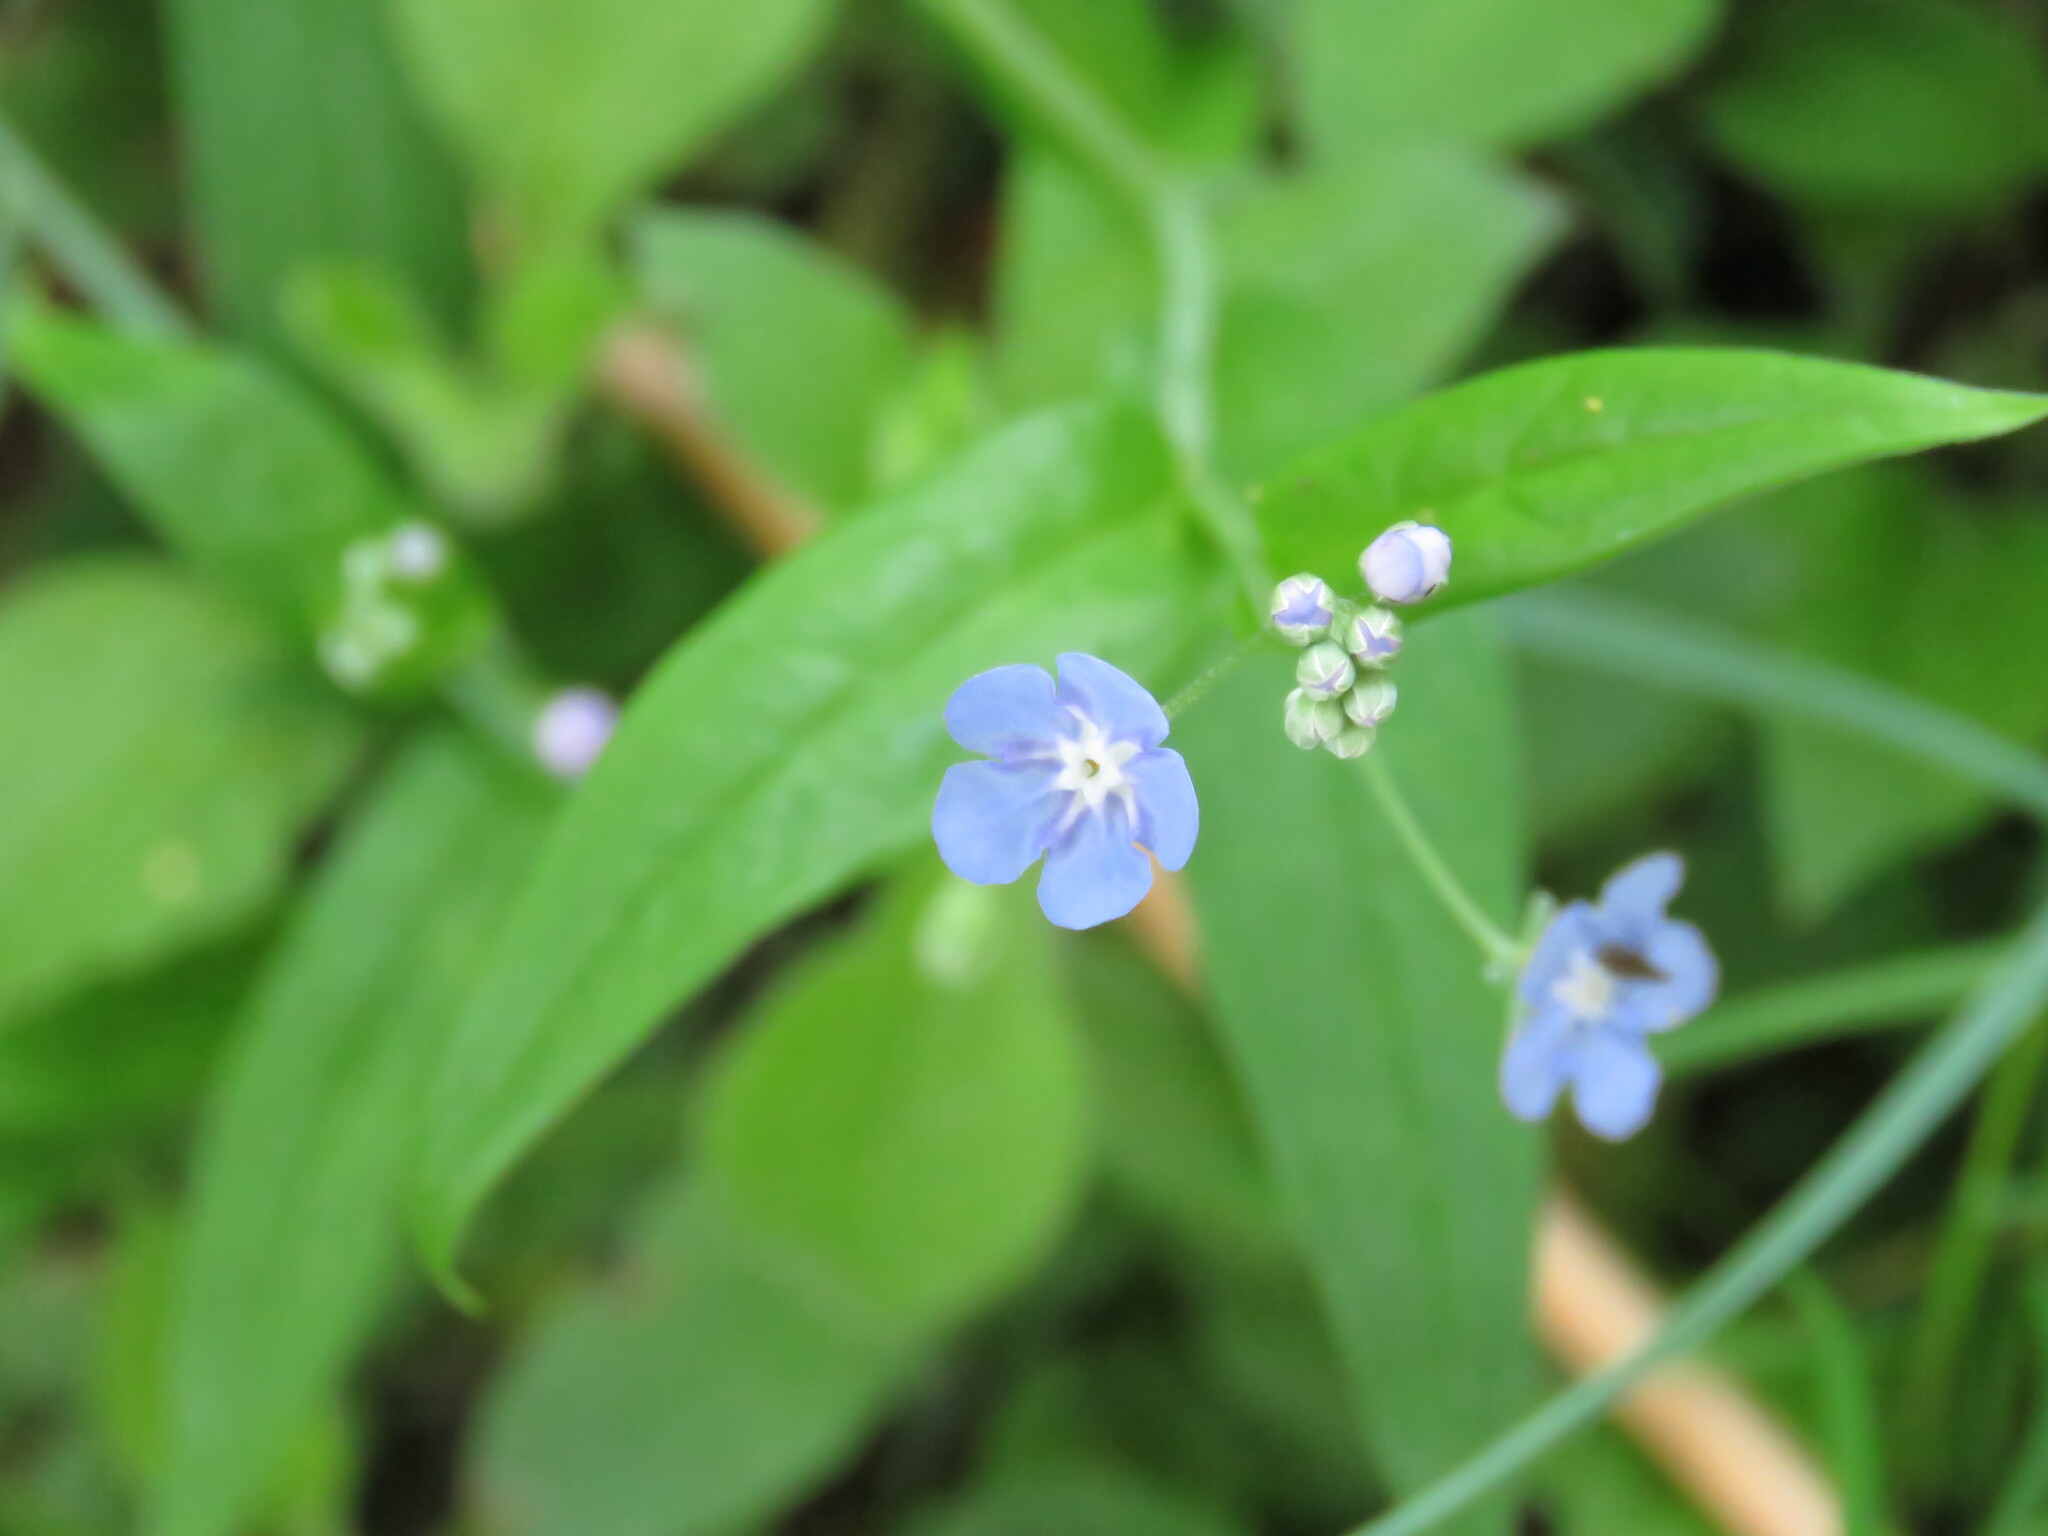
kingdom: Plantae
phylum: Tracheophyta
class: Magnoliopsida
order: Boraginales
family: Boraginaceae
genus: Omphalodes
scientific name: Omphalodes nitida
